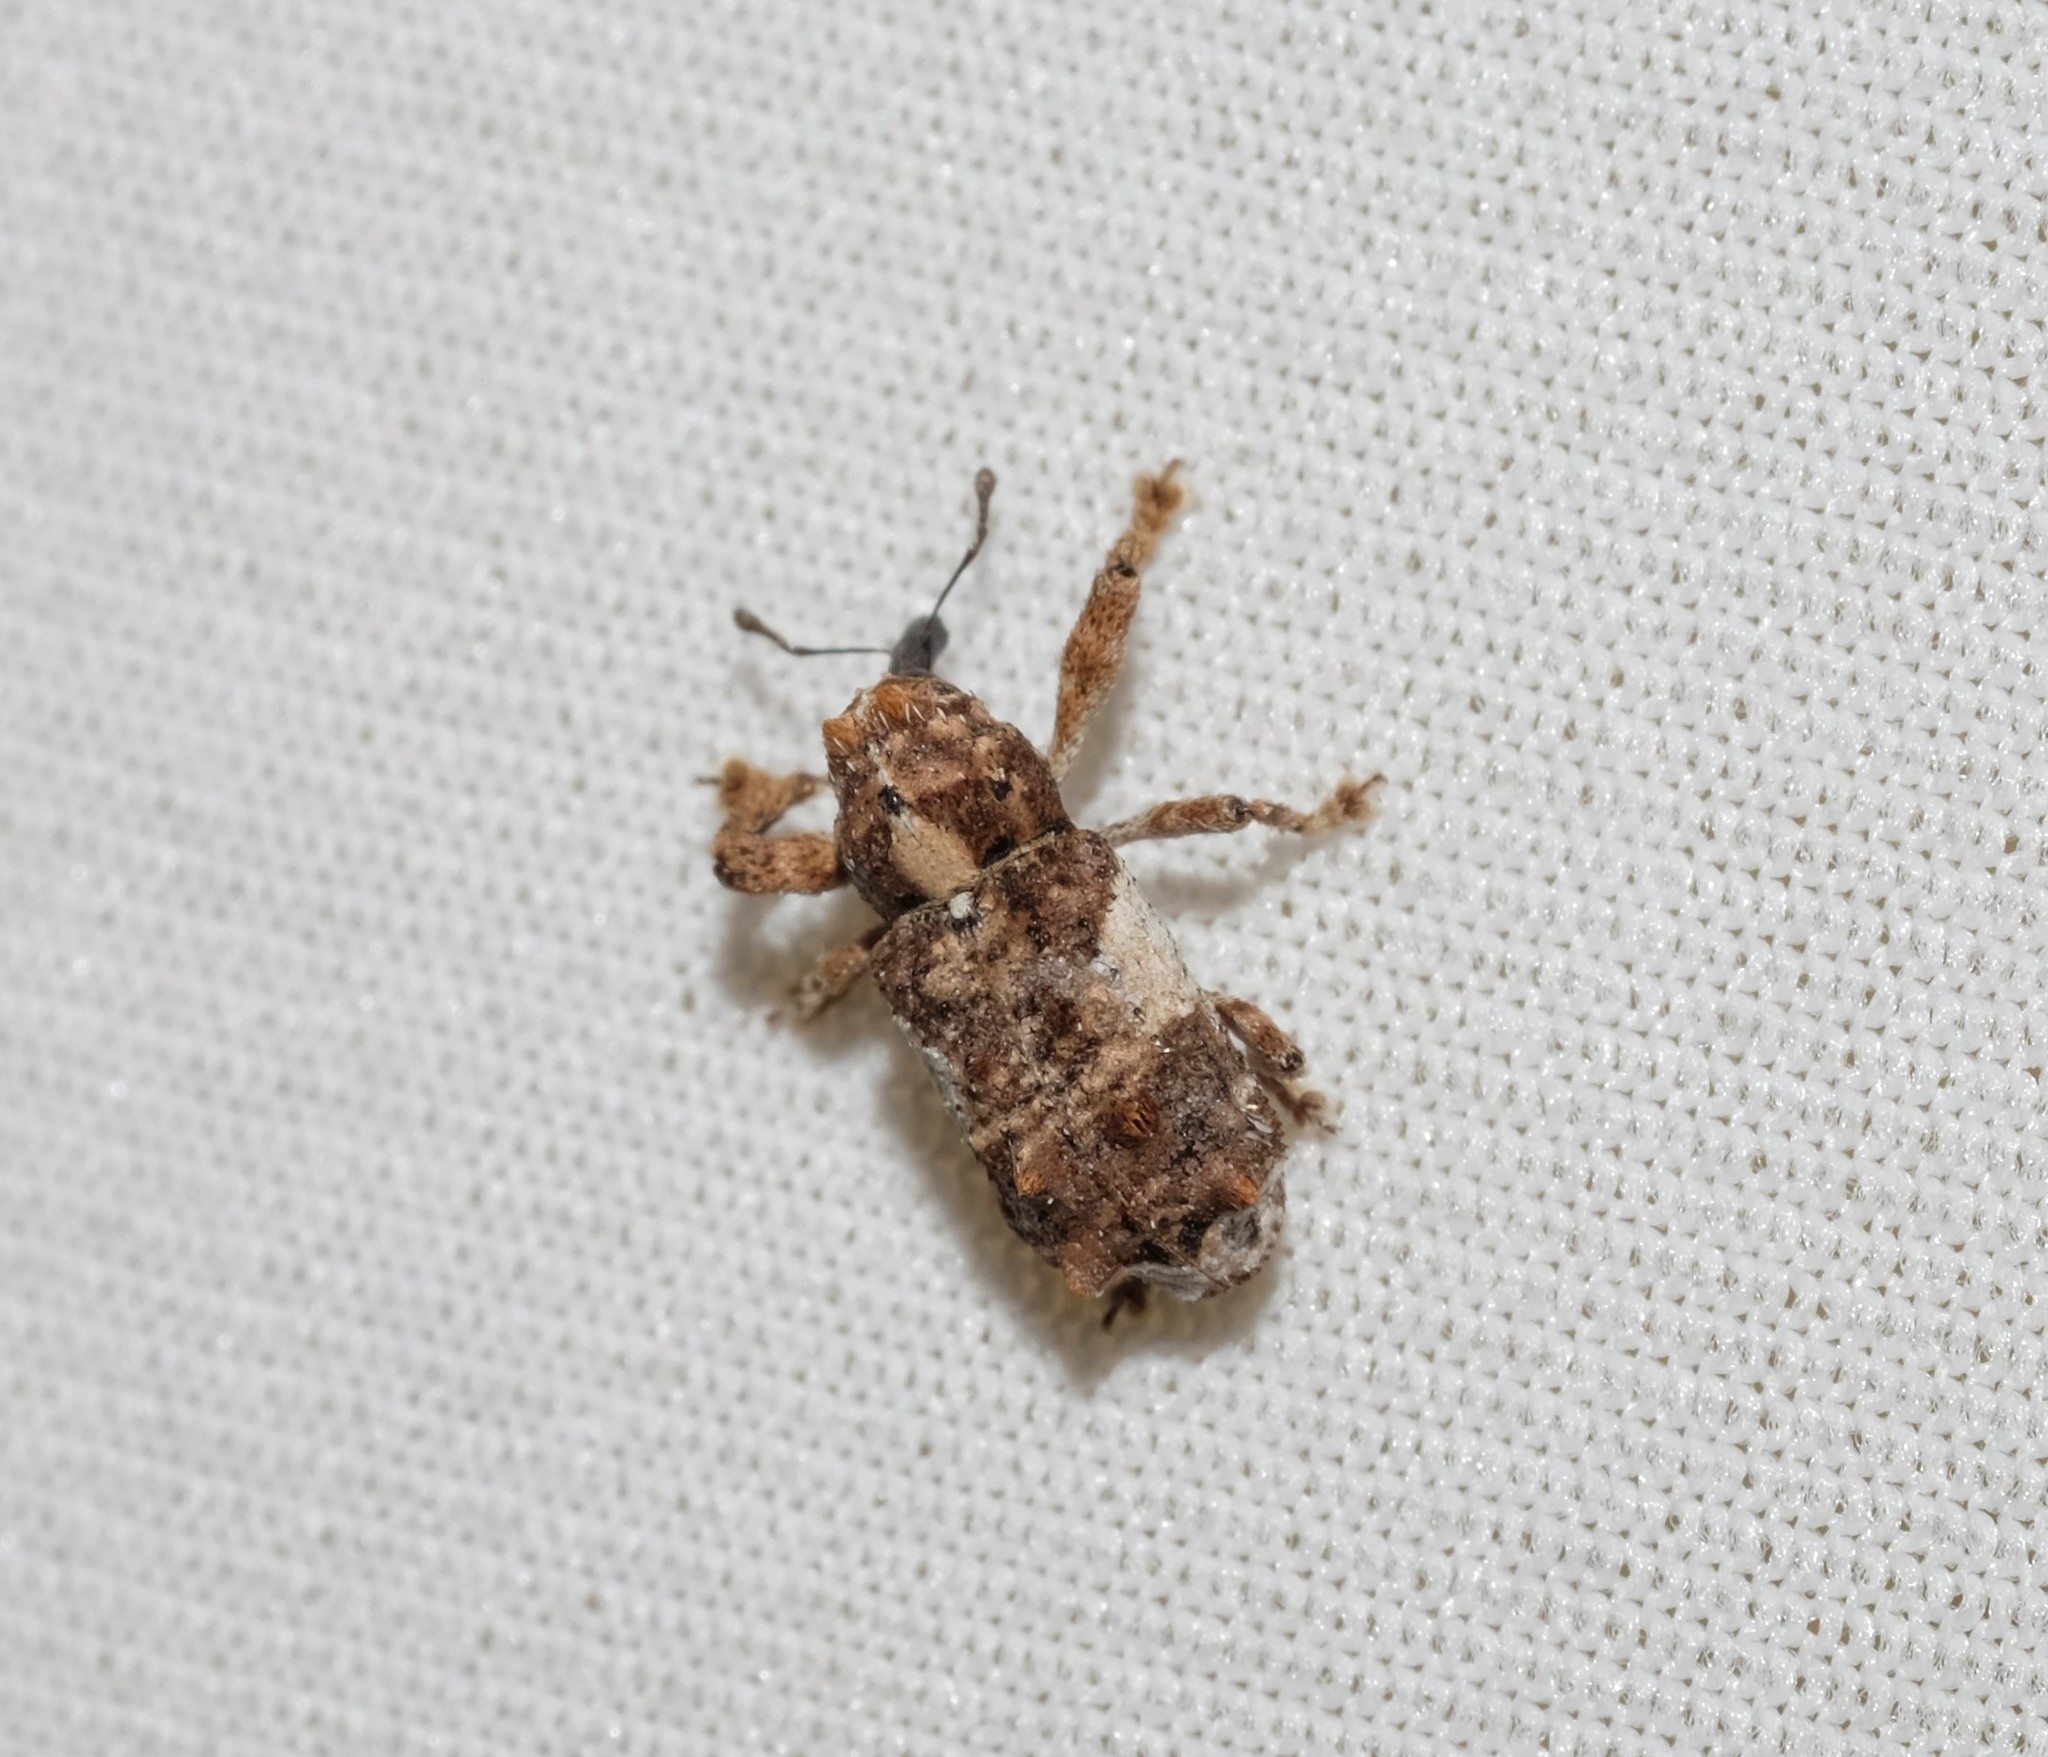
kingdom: Animalia
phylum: Arthropoda
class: Insecta
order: Coleoptera
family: Curculionidae
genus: Orthorhinus
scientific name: Orthorhinus klugii
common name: Vine weevil
